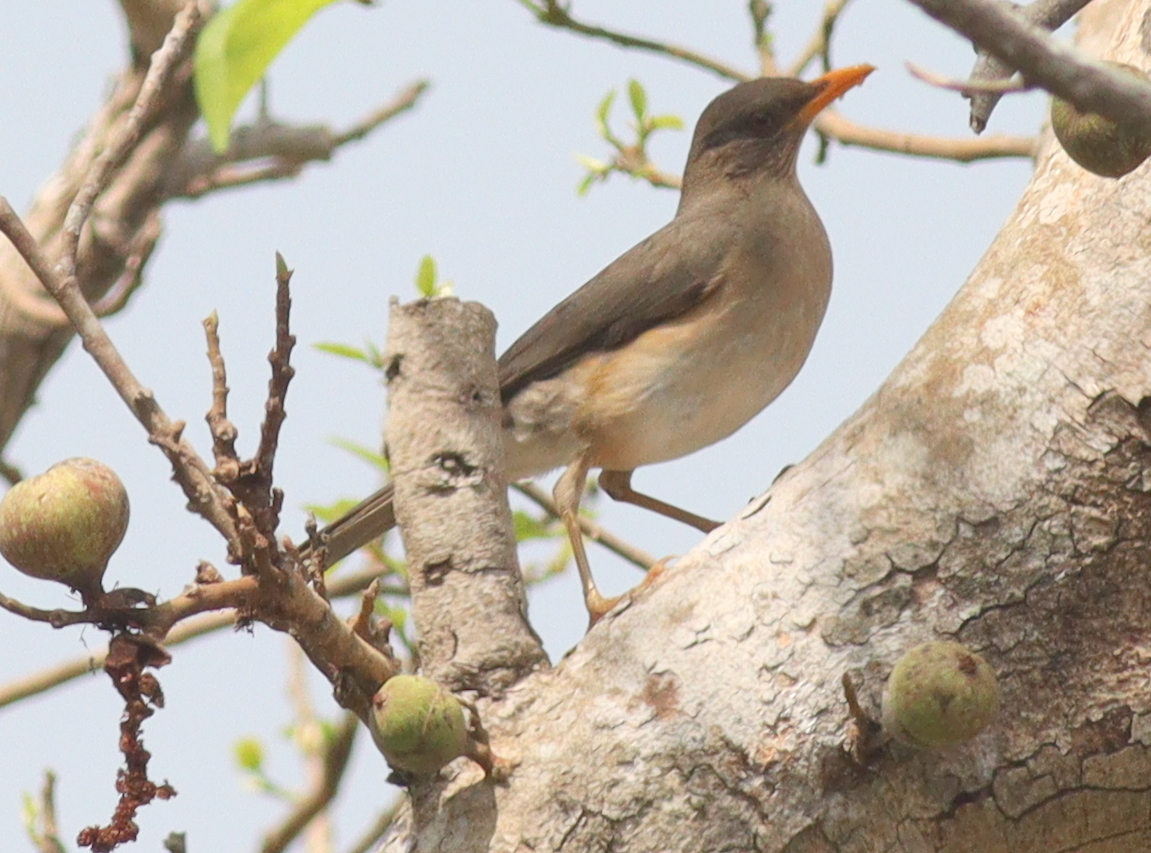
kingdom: Animalia
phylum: Chordata
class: Aves
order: Passeriformes
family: Turdidae
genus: Turdus
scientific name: Turdus pelios
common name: African thrush
